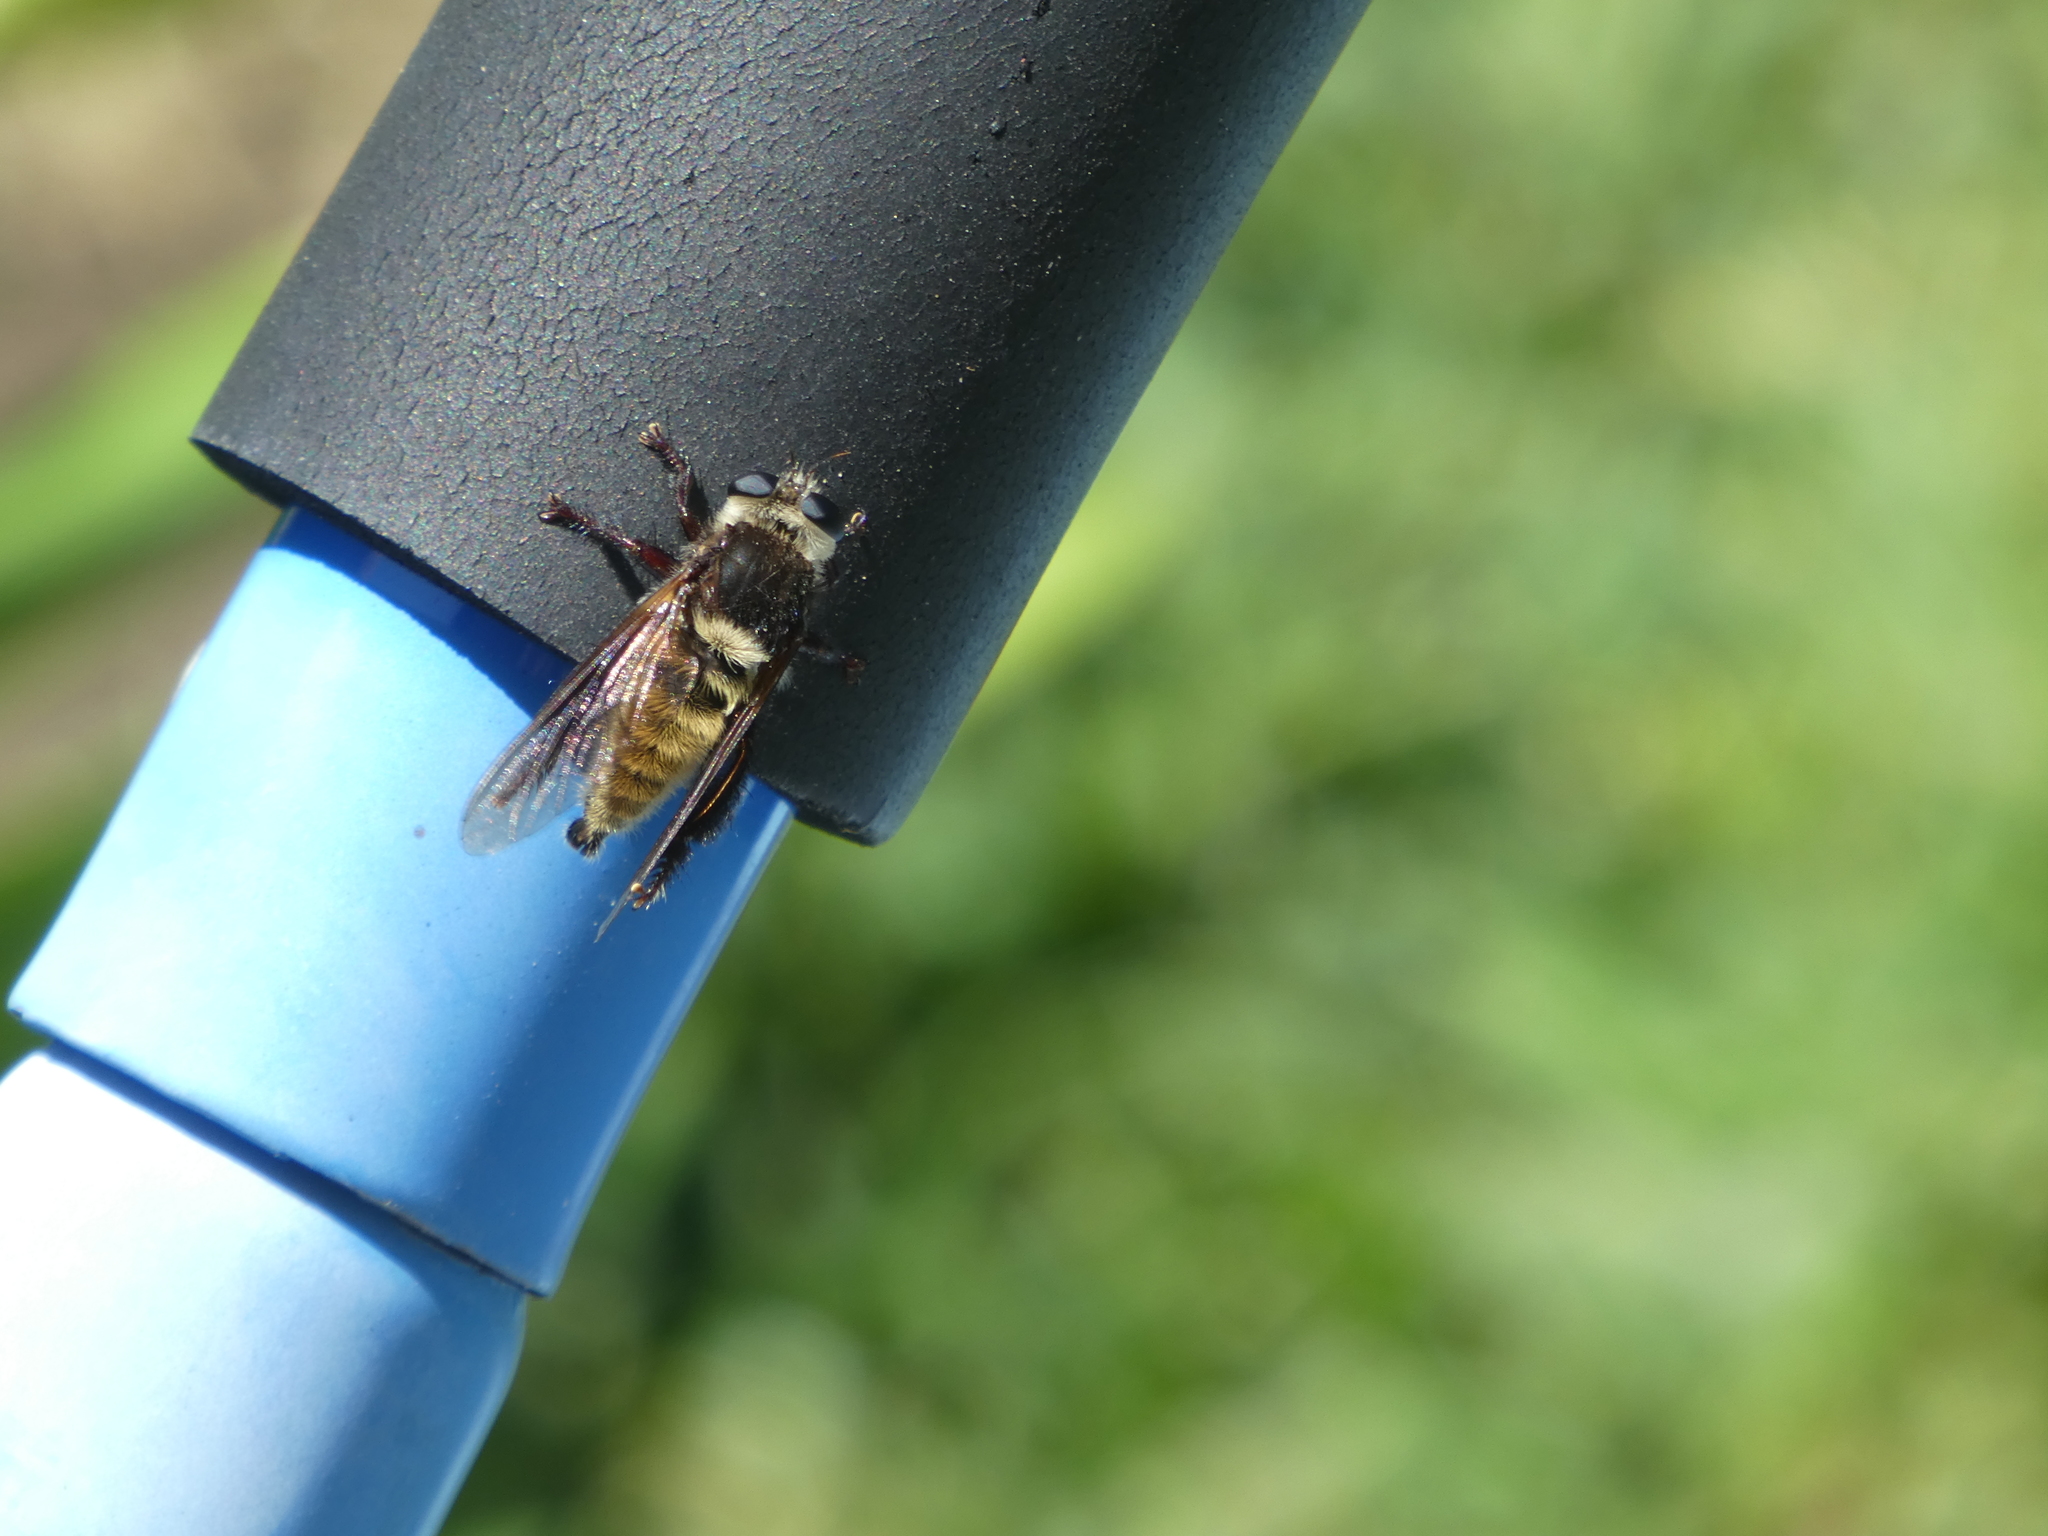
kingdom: Animalia
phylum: Arthropoda
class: Insecta
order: Diptera
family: Asilidae
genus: Mallophora
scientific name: Mallophora fautrix
